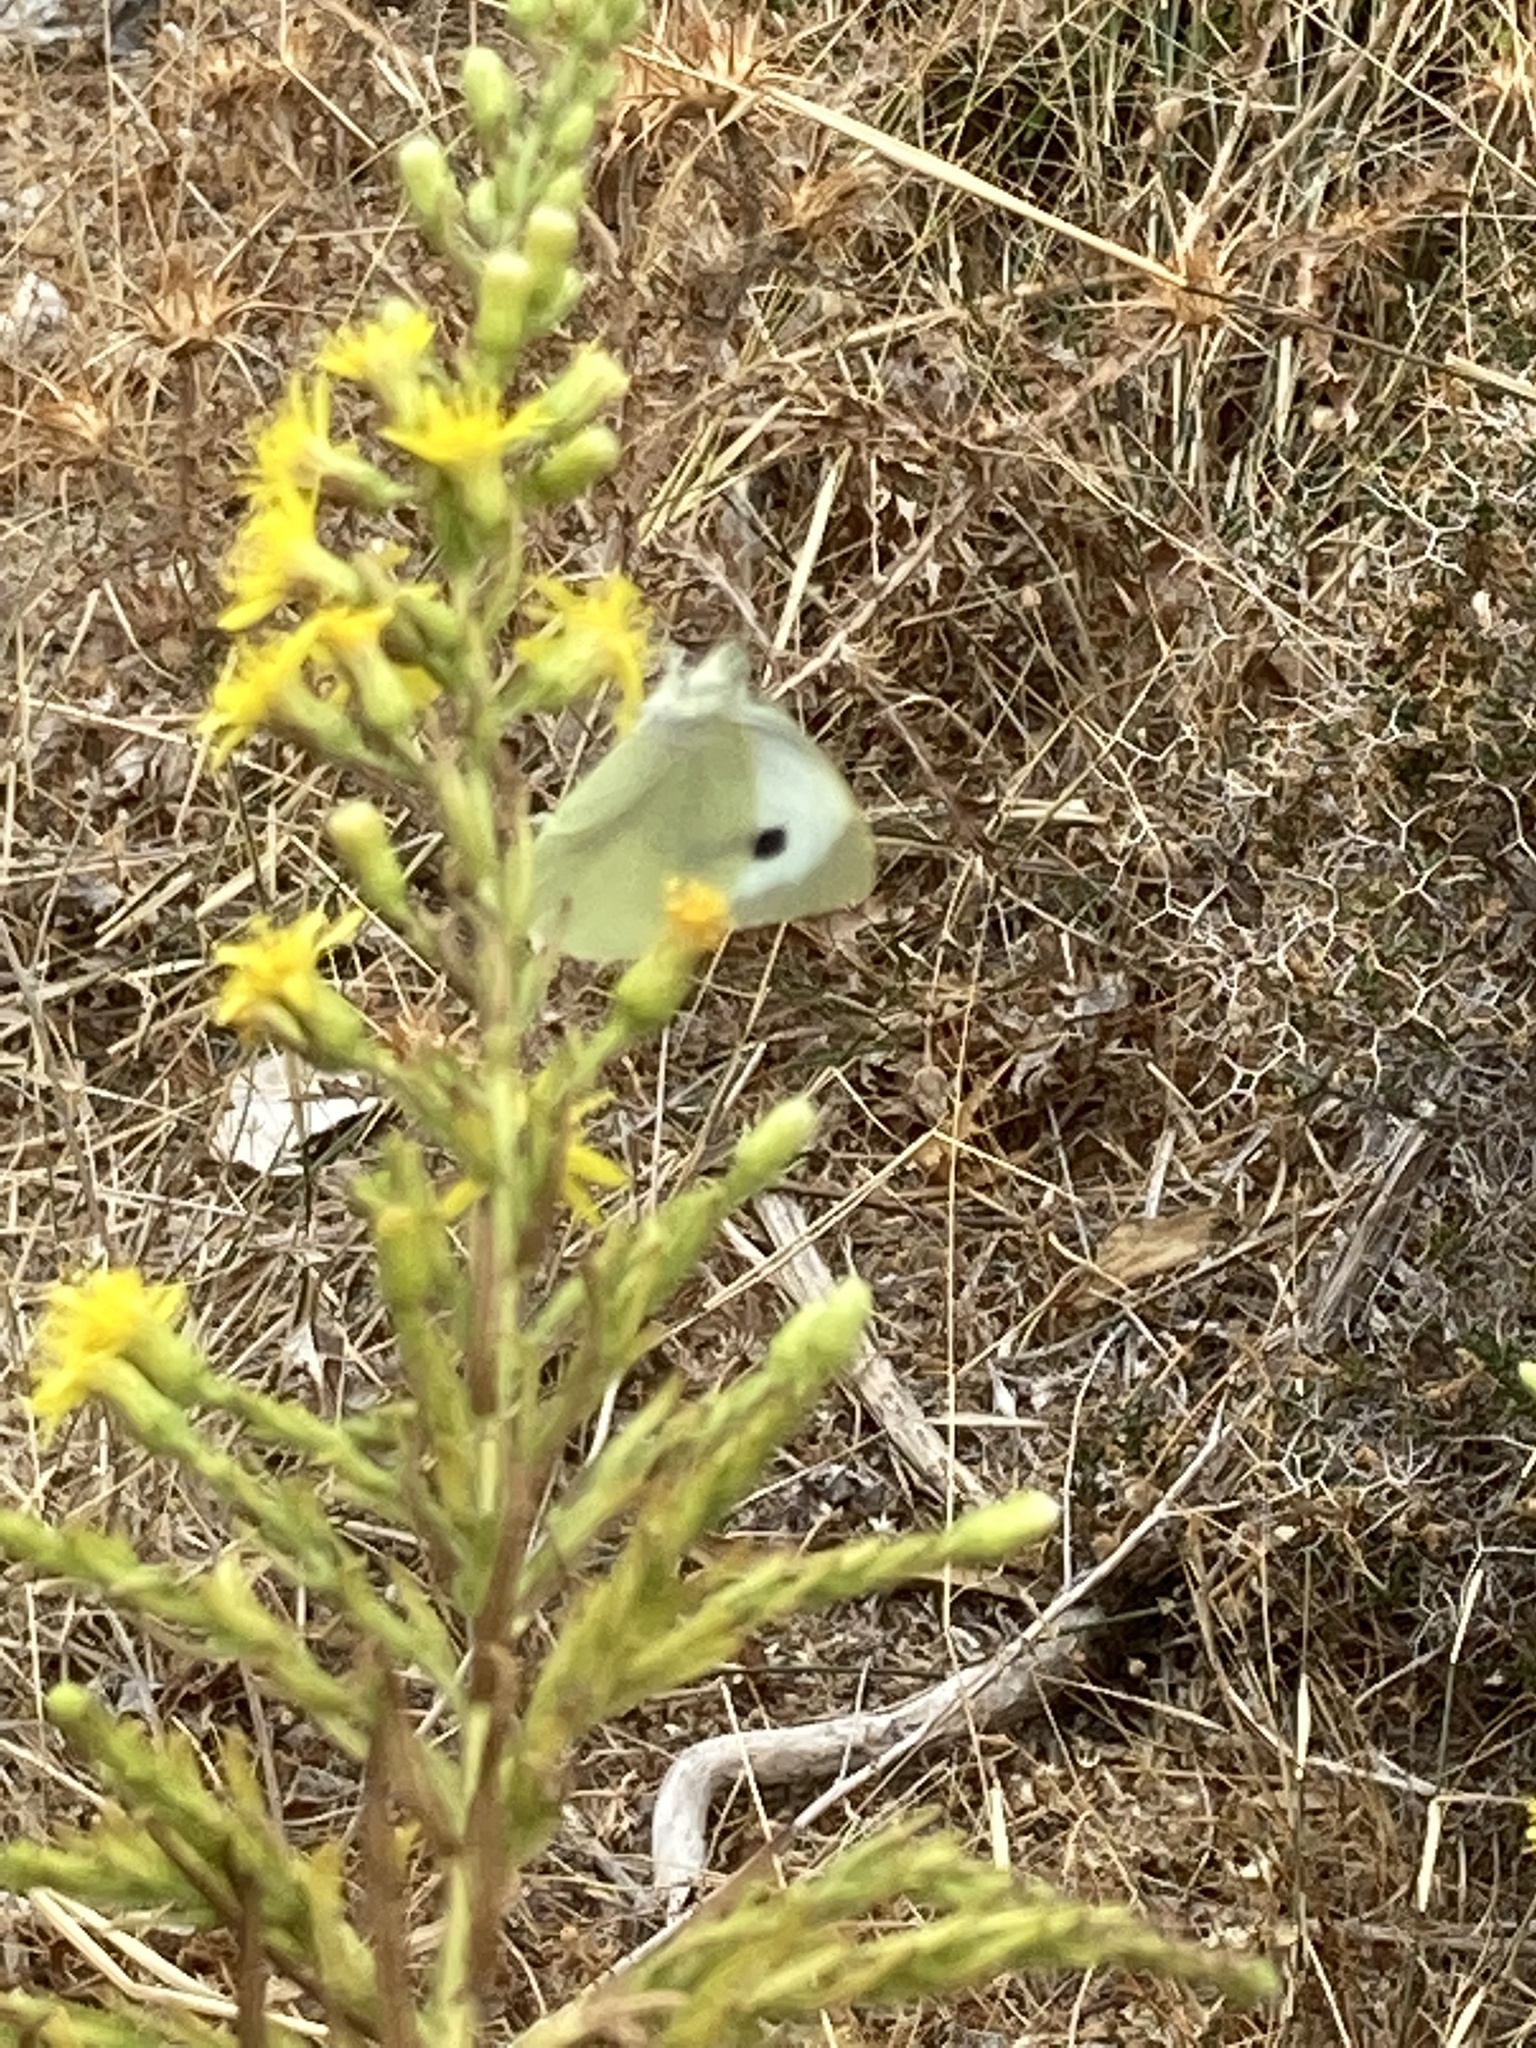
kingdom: Animalia
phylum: Arthropoda
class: Insecta
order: Lepidoptera
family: Pieridae
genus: Pieris
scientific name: Pieris brassicae
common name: Large white
